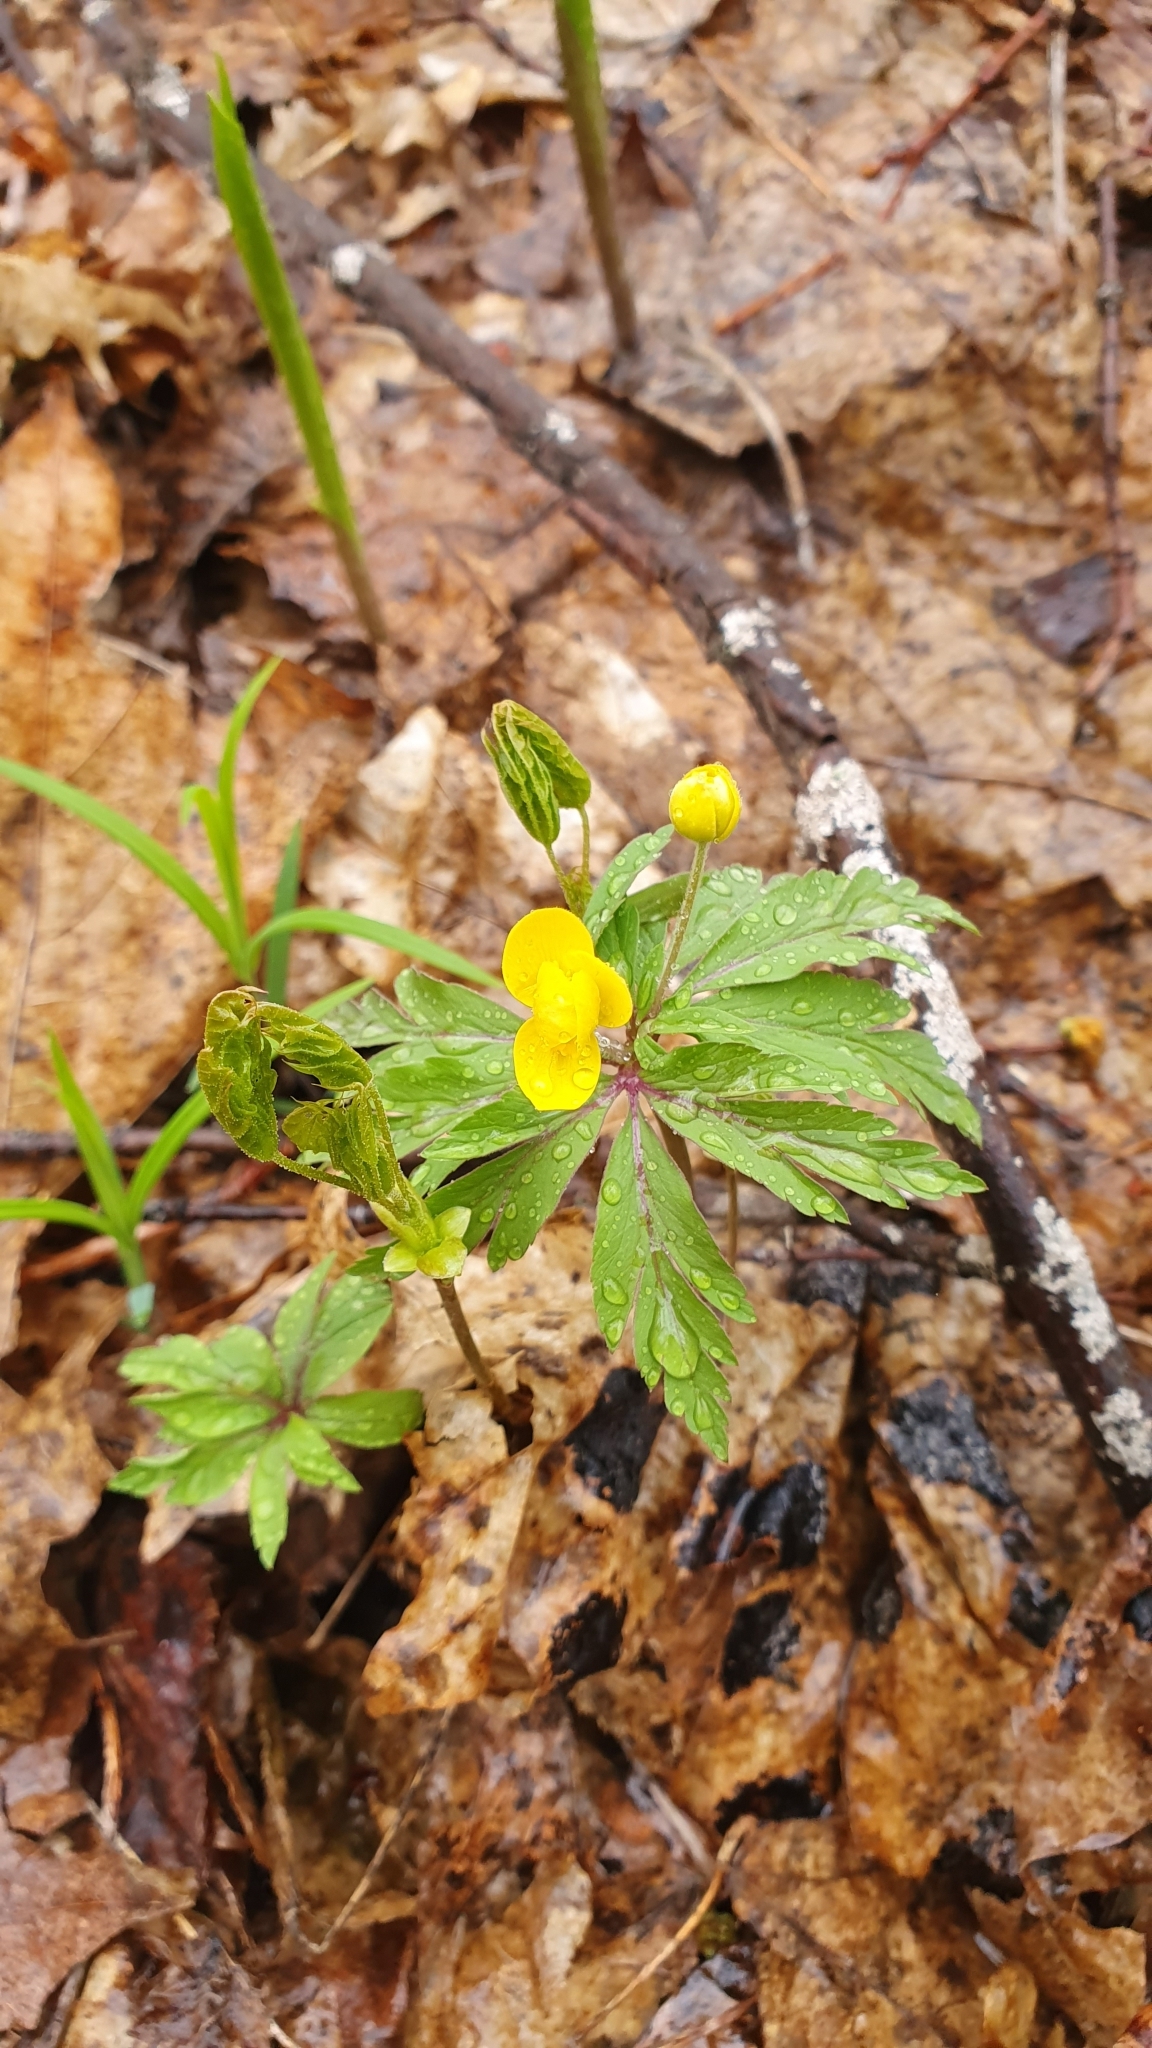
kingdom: Plantae
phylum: Tracheophyta
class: Magnoliopsida
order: Ranunculales
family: Ranunculaceae
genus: Anemone
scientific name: Anemone ranunculoides
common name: Yellow anemone
